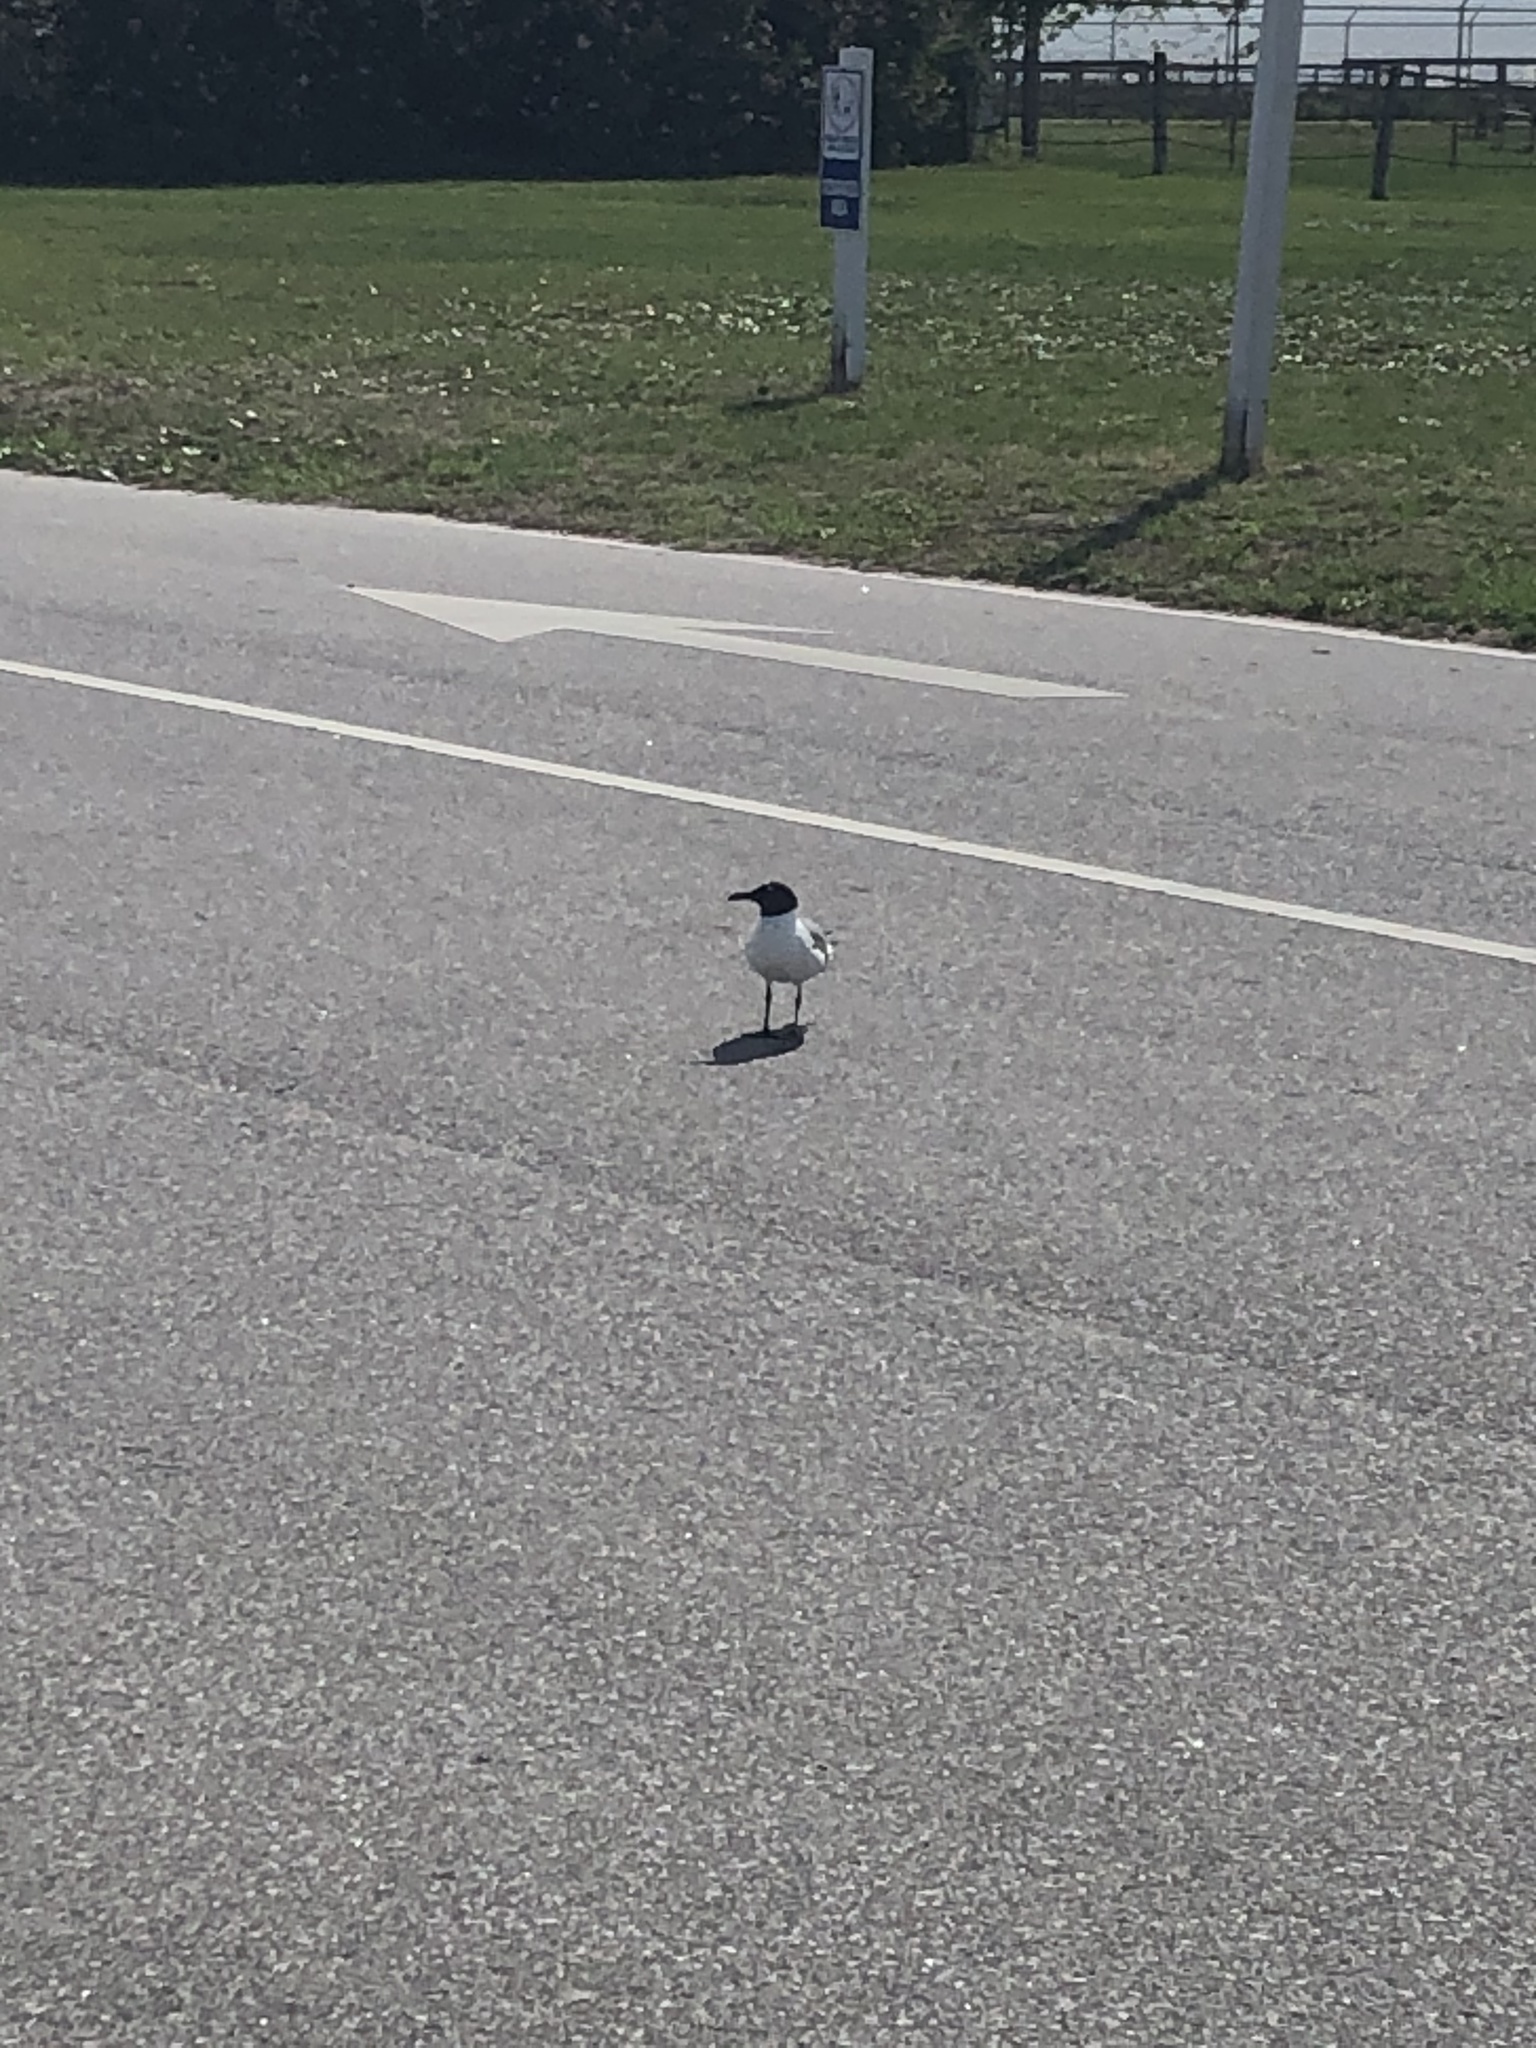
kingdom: Animalia
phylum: Chordata
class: Aves
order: Charadriiformes
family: Laridae
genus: Leucophaeus
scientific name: Leucophaeus atricilla
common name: Laughing gull
